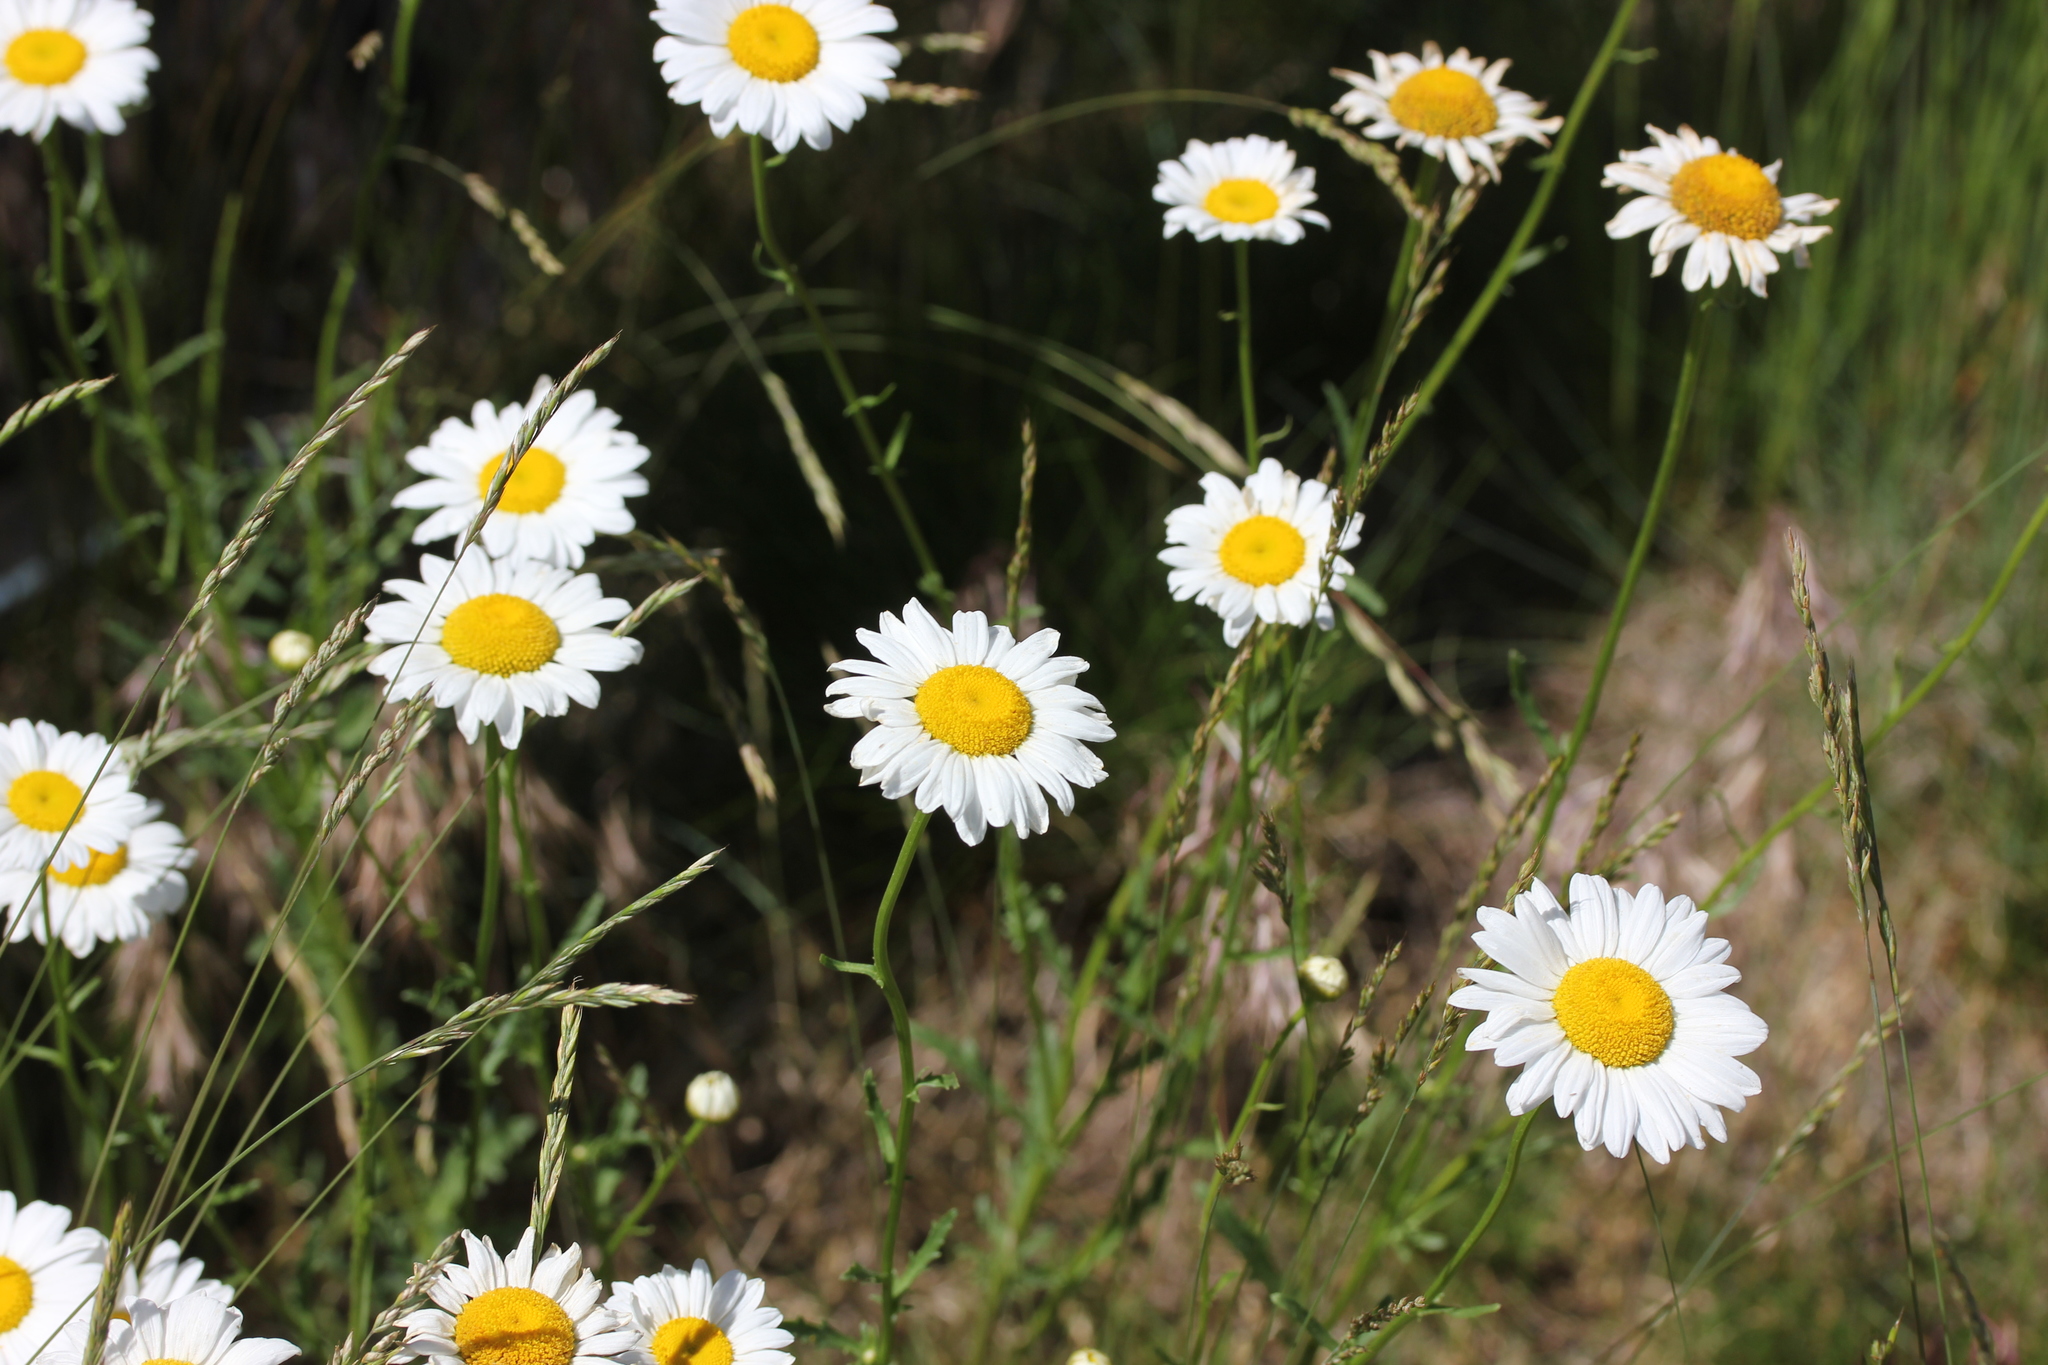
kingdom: Plantae
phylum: Tracheophyta
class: Magnoliopsida
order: Asterales
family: Asteraceae
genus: Leucanthemum
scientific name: Leucanthemum vulgare
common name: Oxeye daisy
